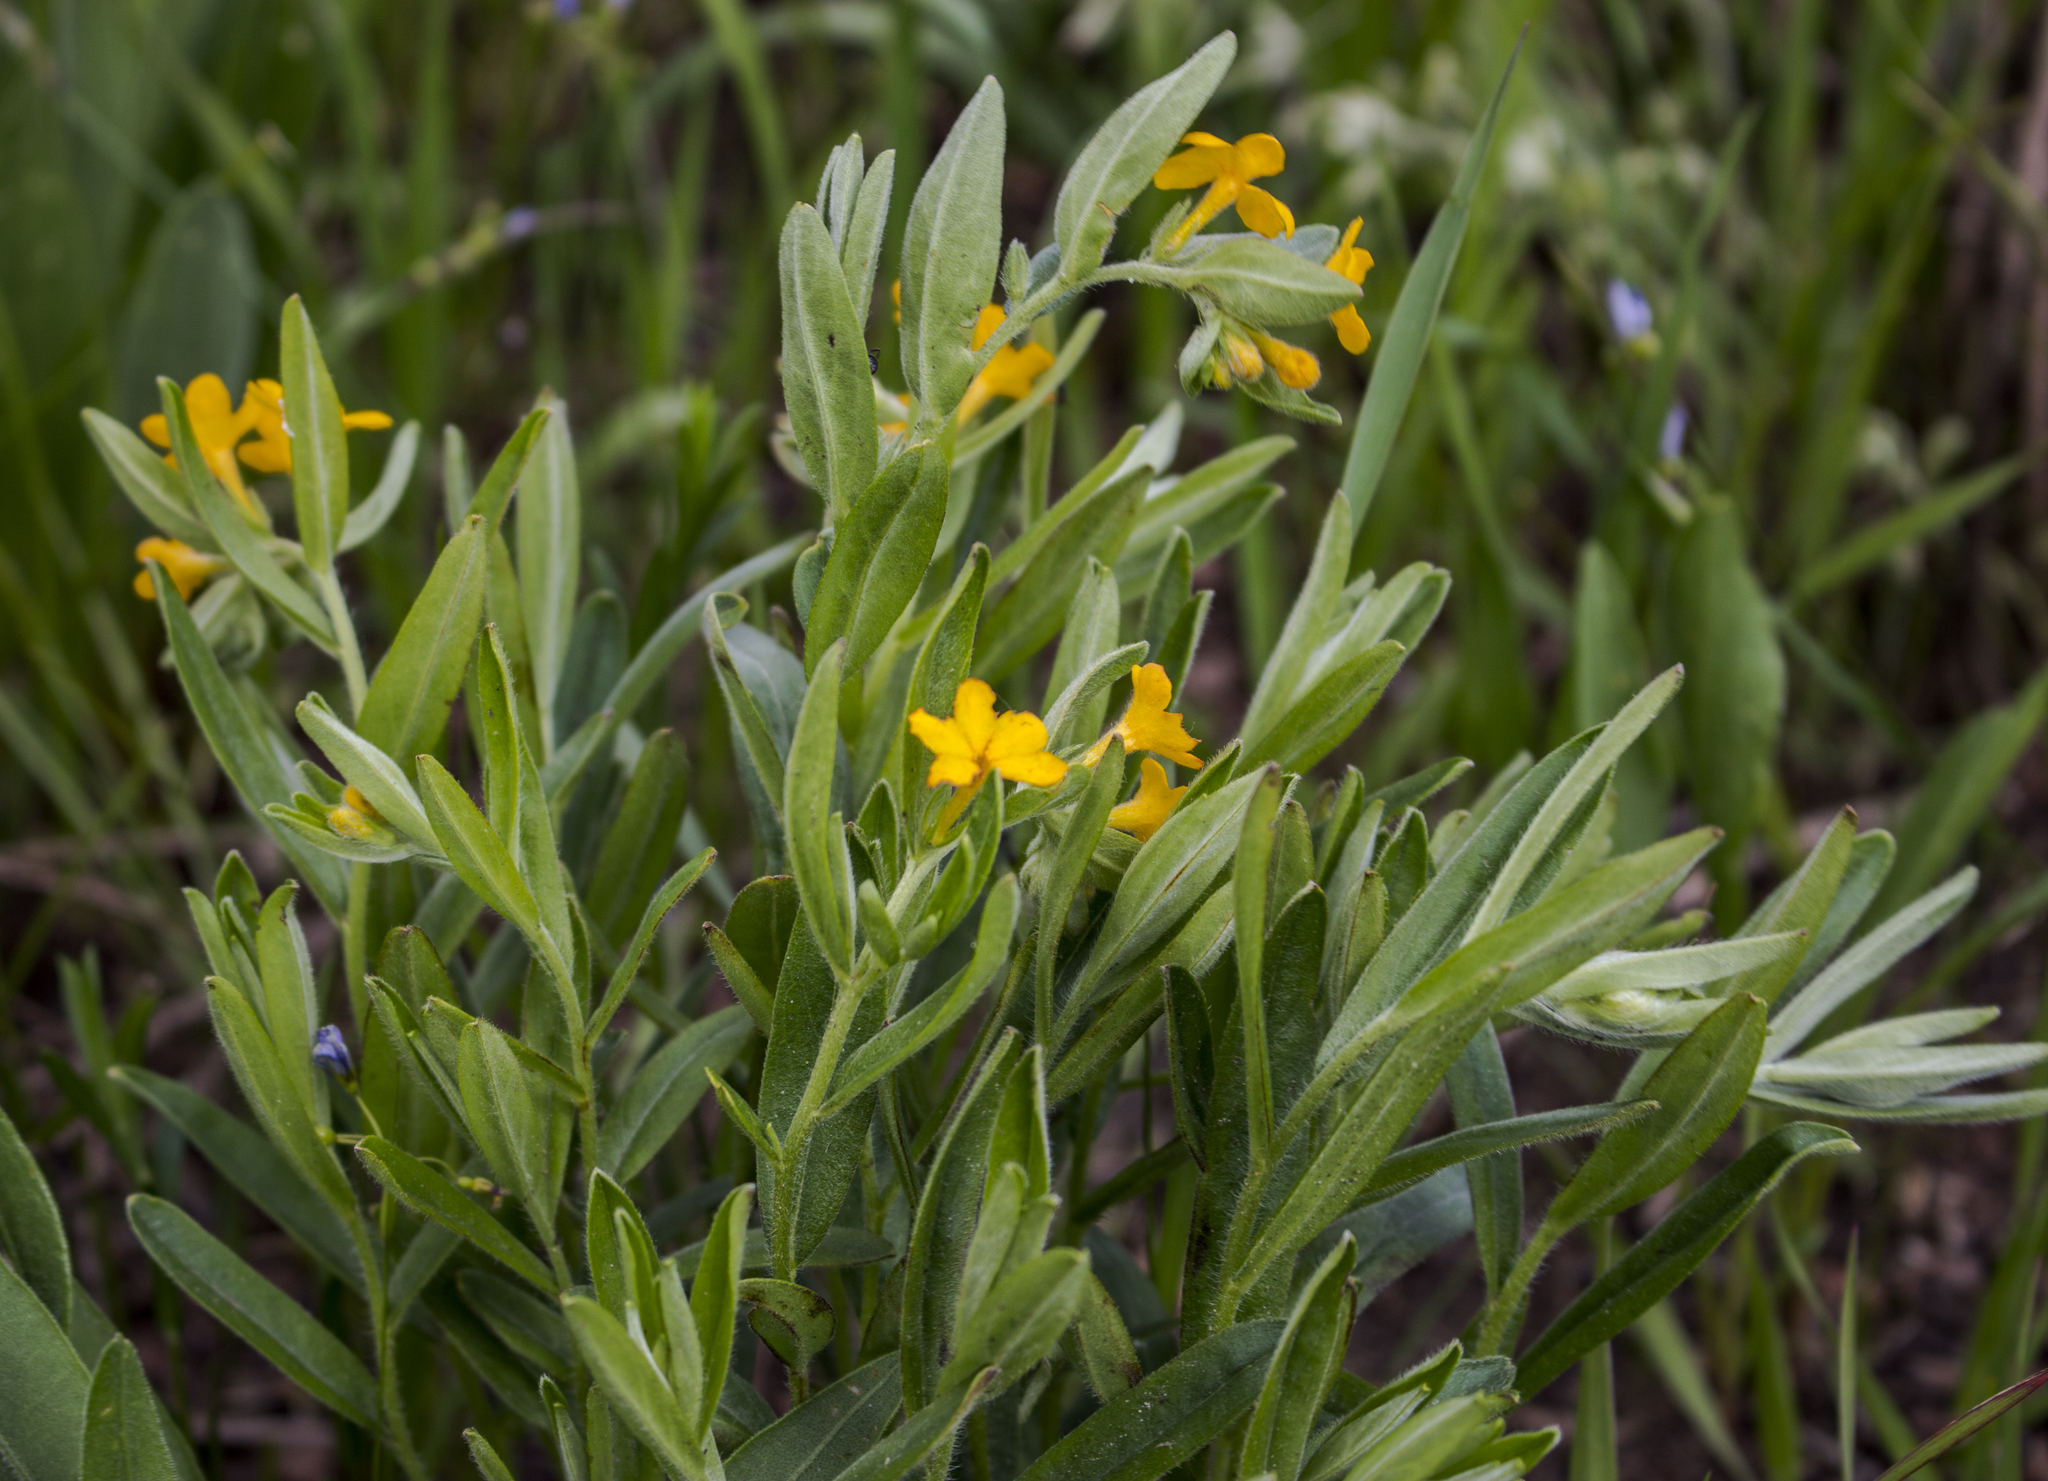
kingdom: Plantae
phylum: Tracheophyta
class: Magnoliopsida
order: Boraginales
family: Boraginaceae
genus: Lithospermum
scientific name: Lithospermum canescens
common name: Hoary puccoon
